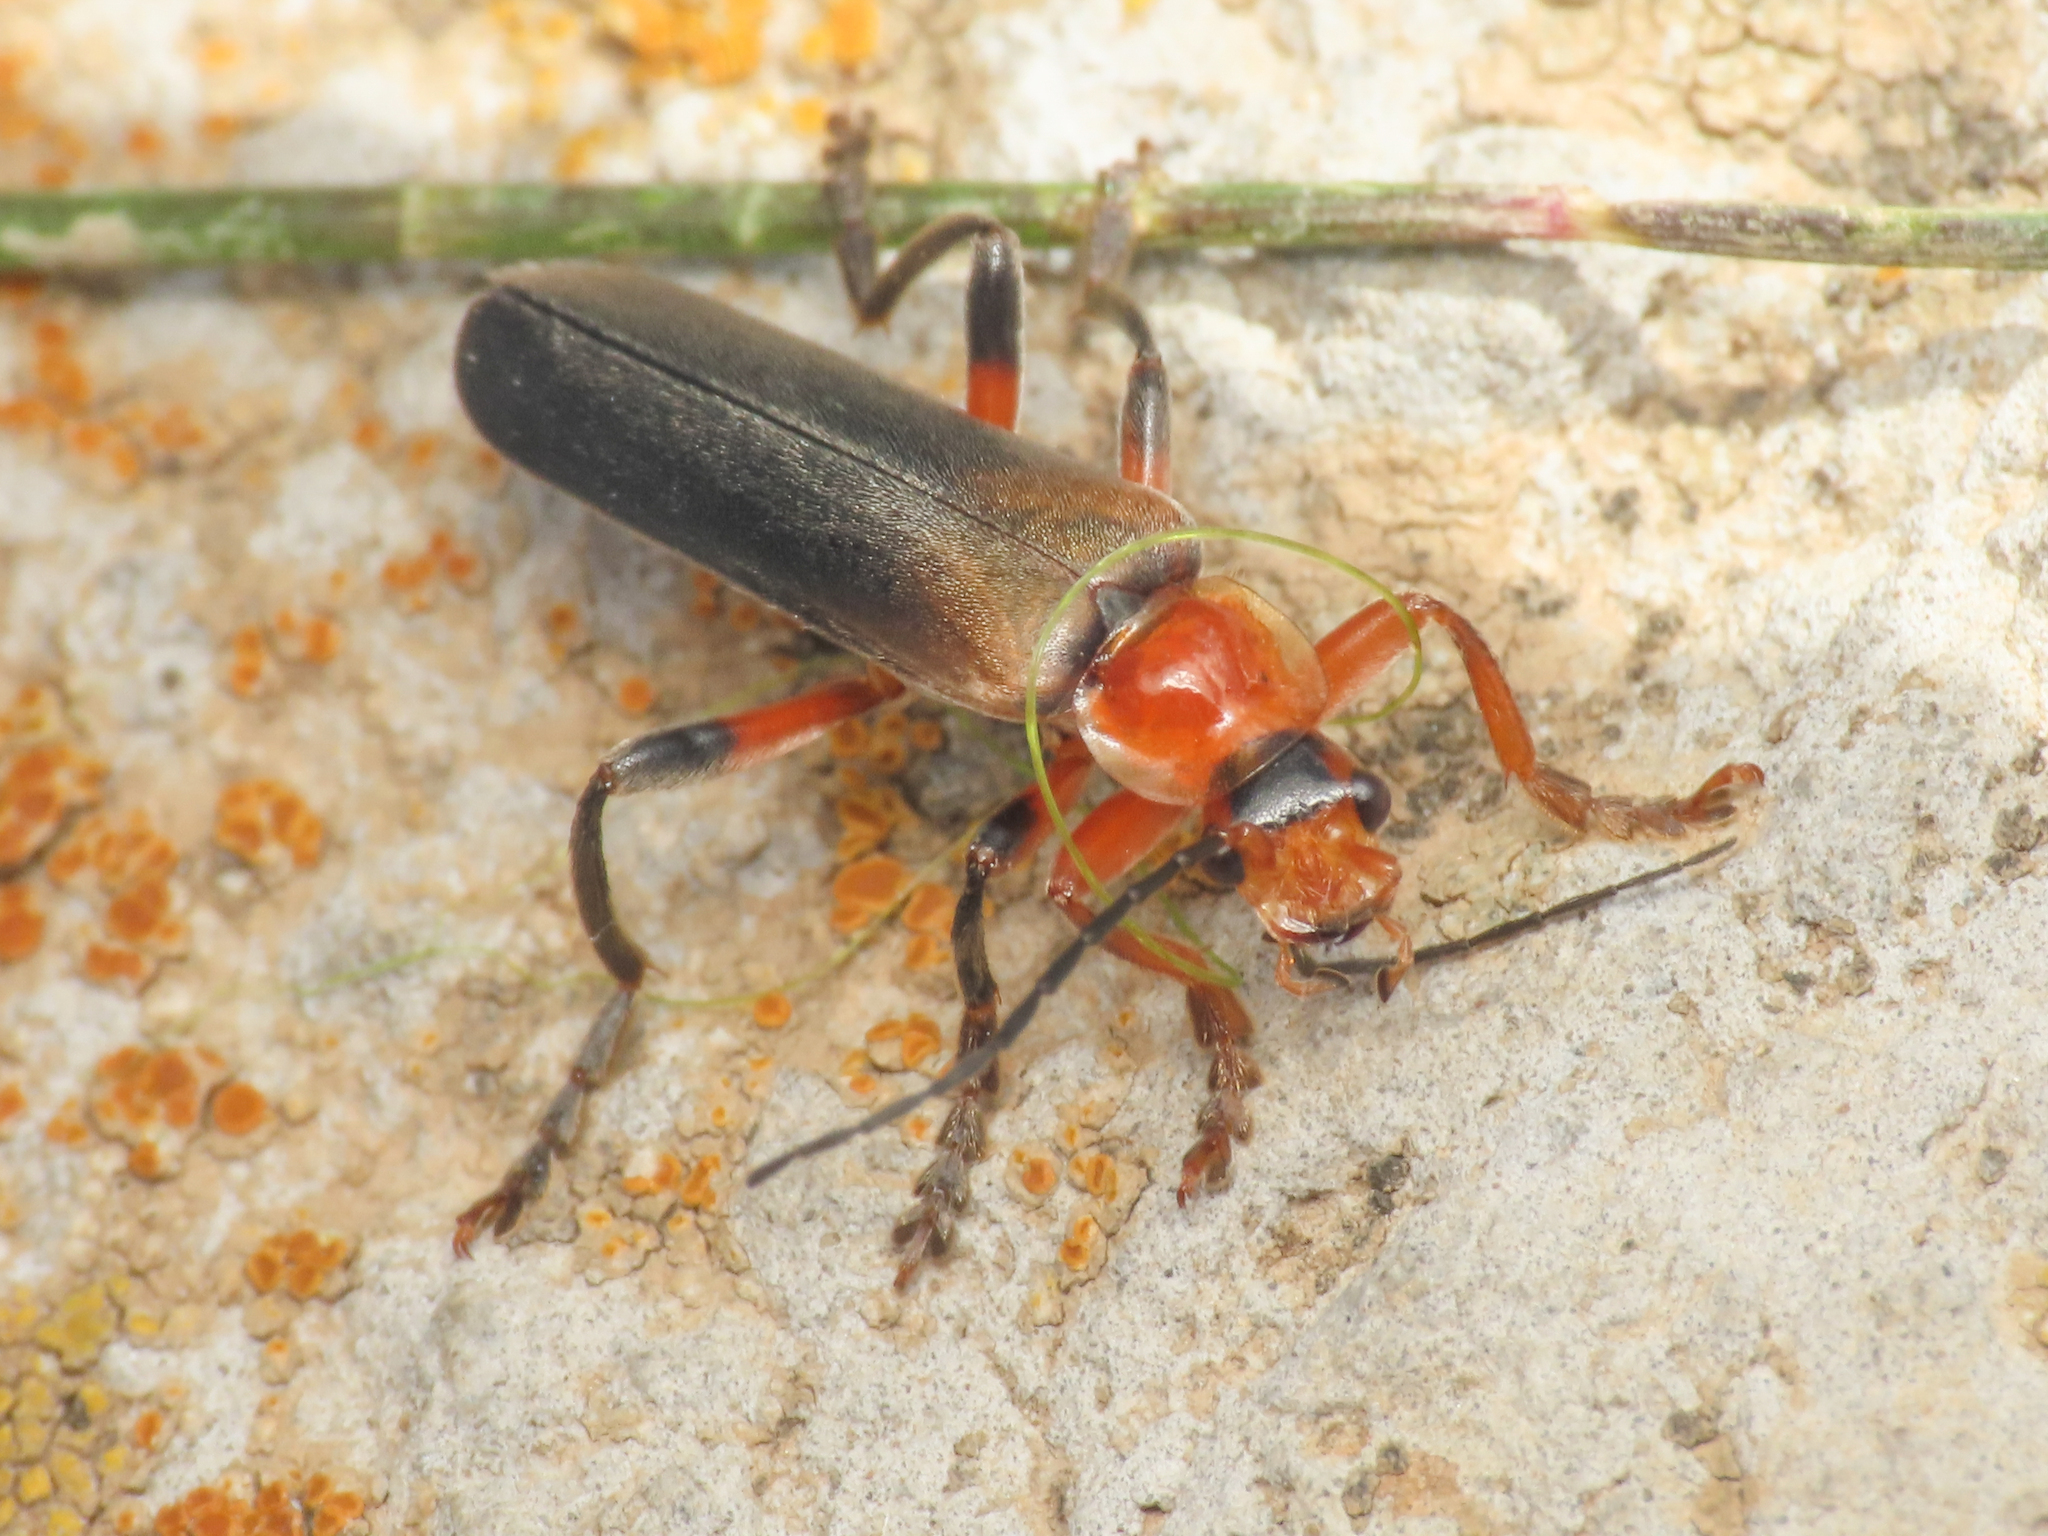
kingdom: Animalia
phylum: Arthropoda
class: Insecta
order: Coleoptera
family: Cantharidae
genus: Cantharis
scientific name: Cantharis livida
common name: Livid soldier beetle
